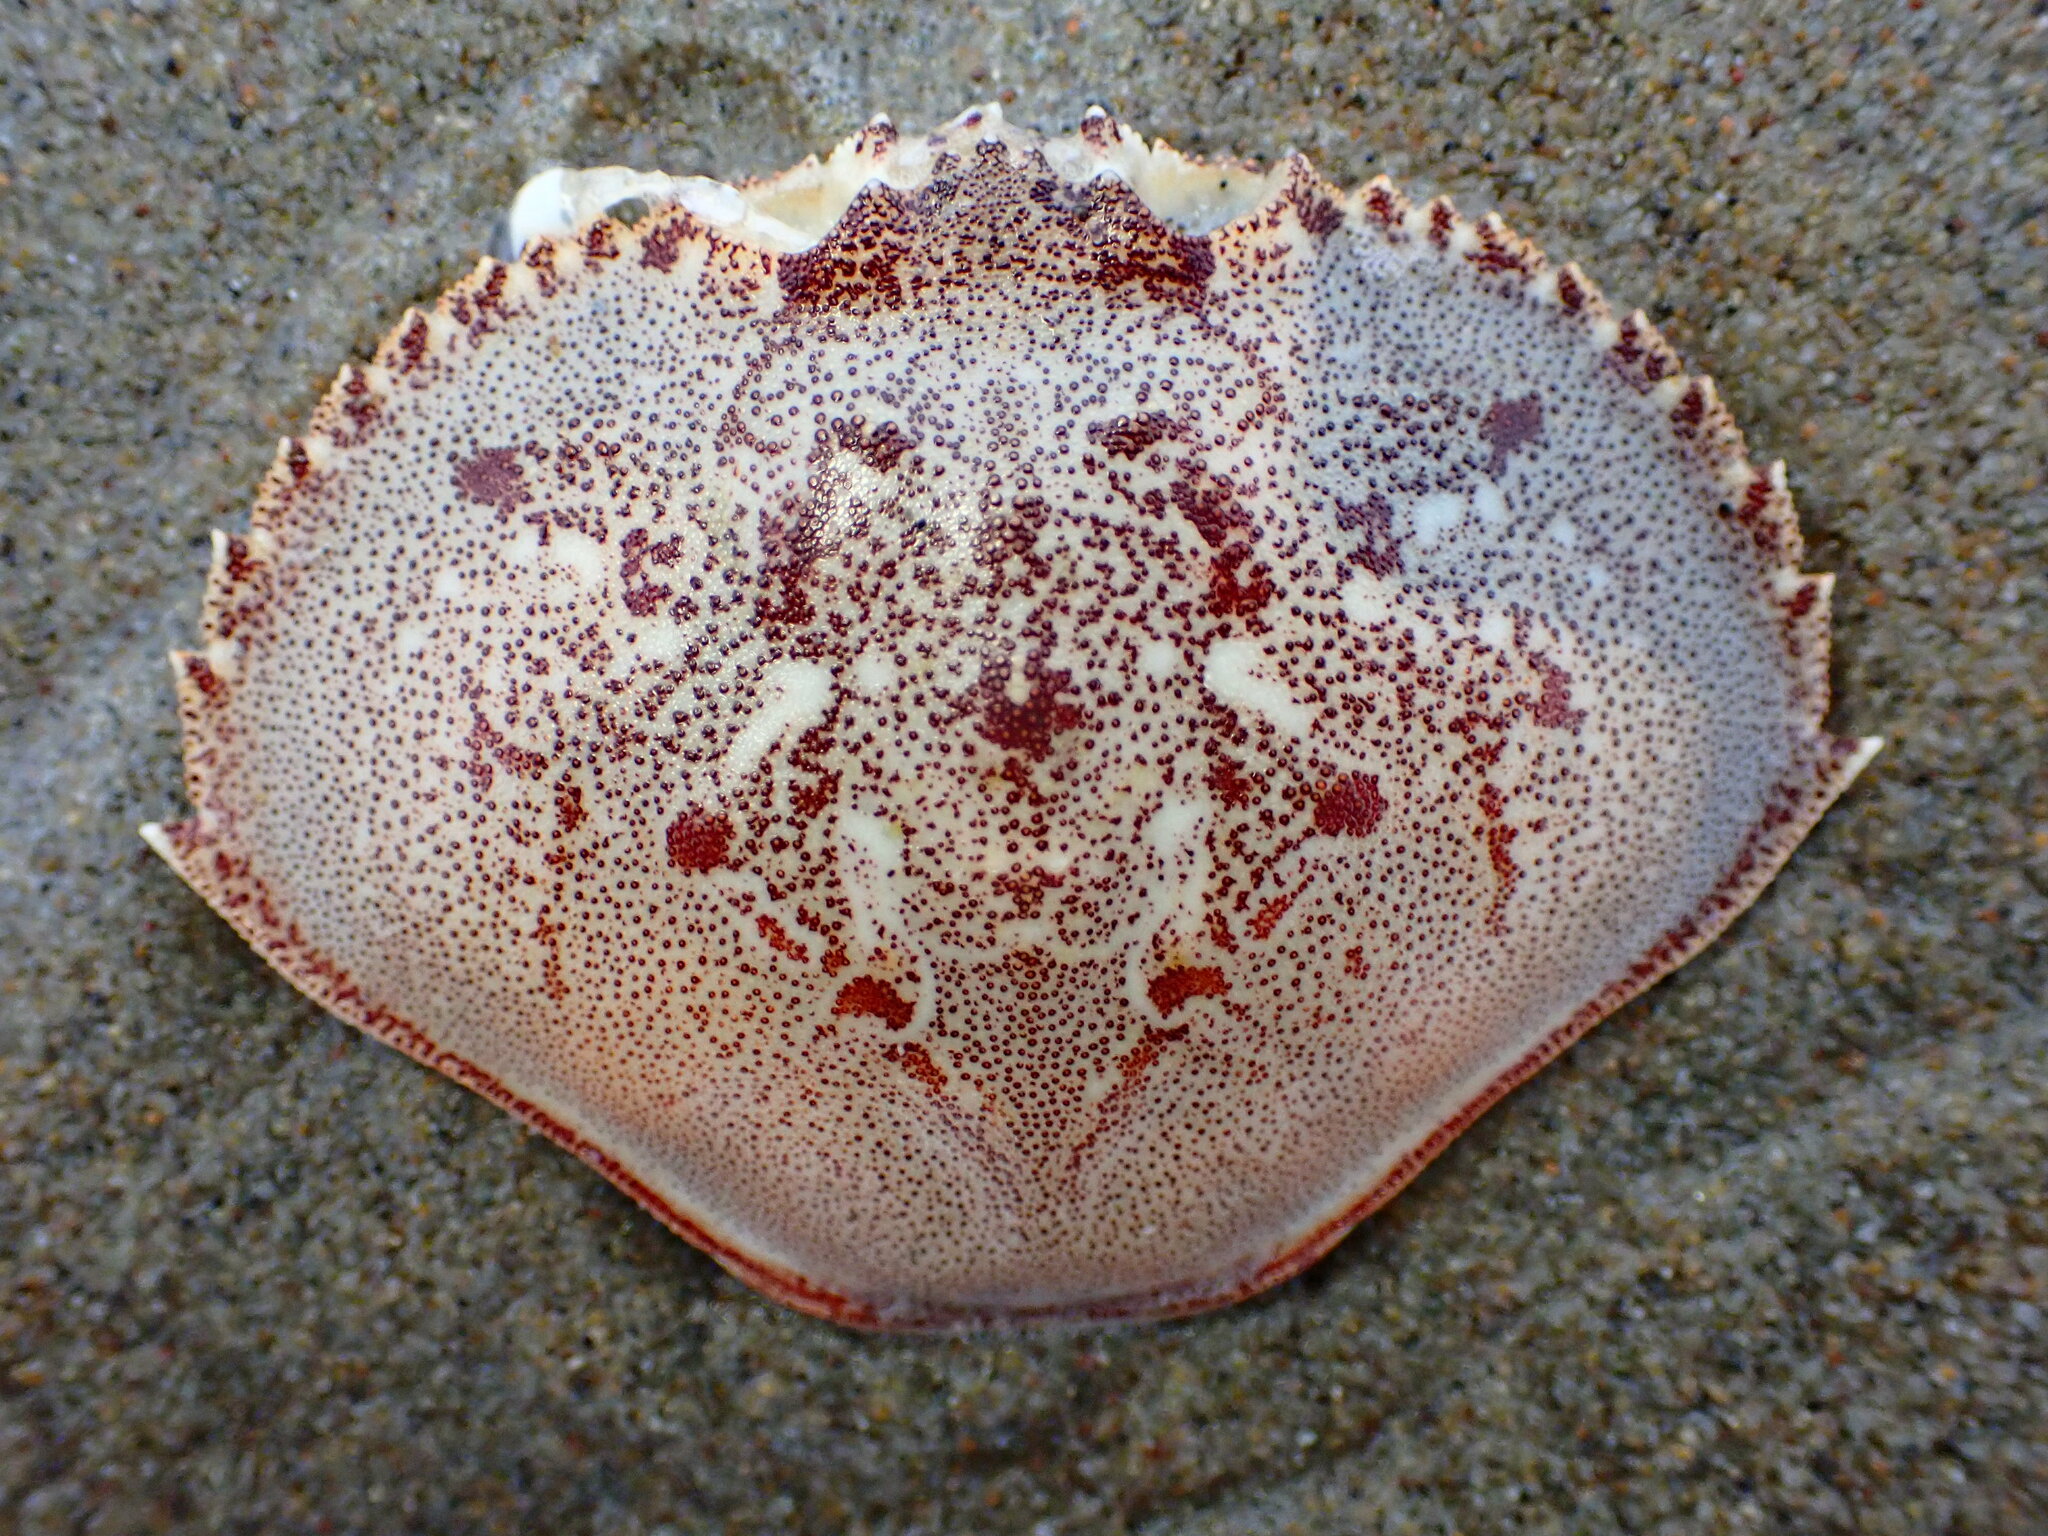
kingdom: Animalia
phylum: Arthropoda
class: Malacostraca
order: Decapoda
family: Cancridae
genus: Metacarcinus
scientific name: Metacarcinus magister
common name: Californian crab
